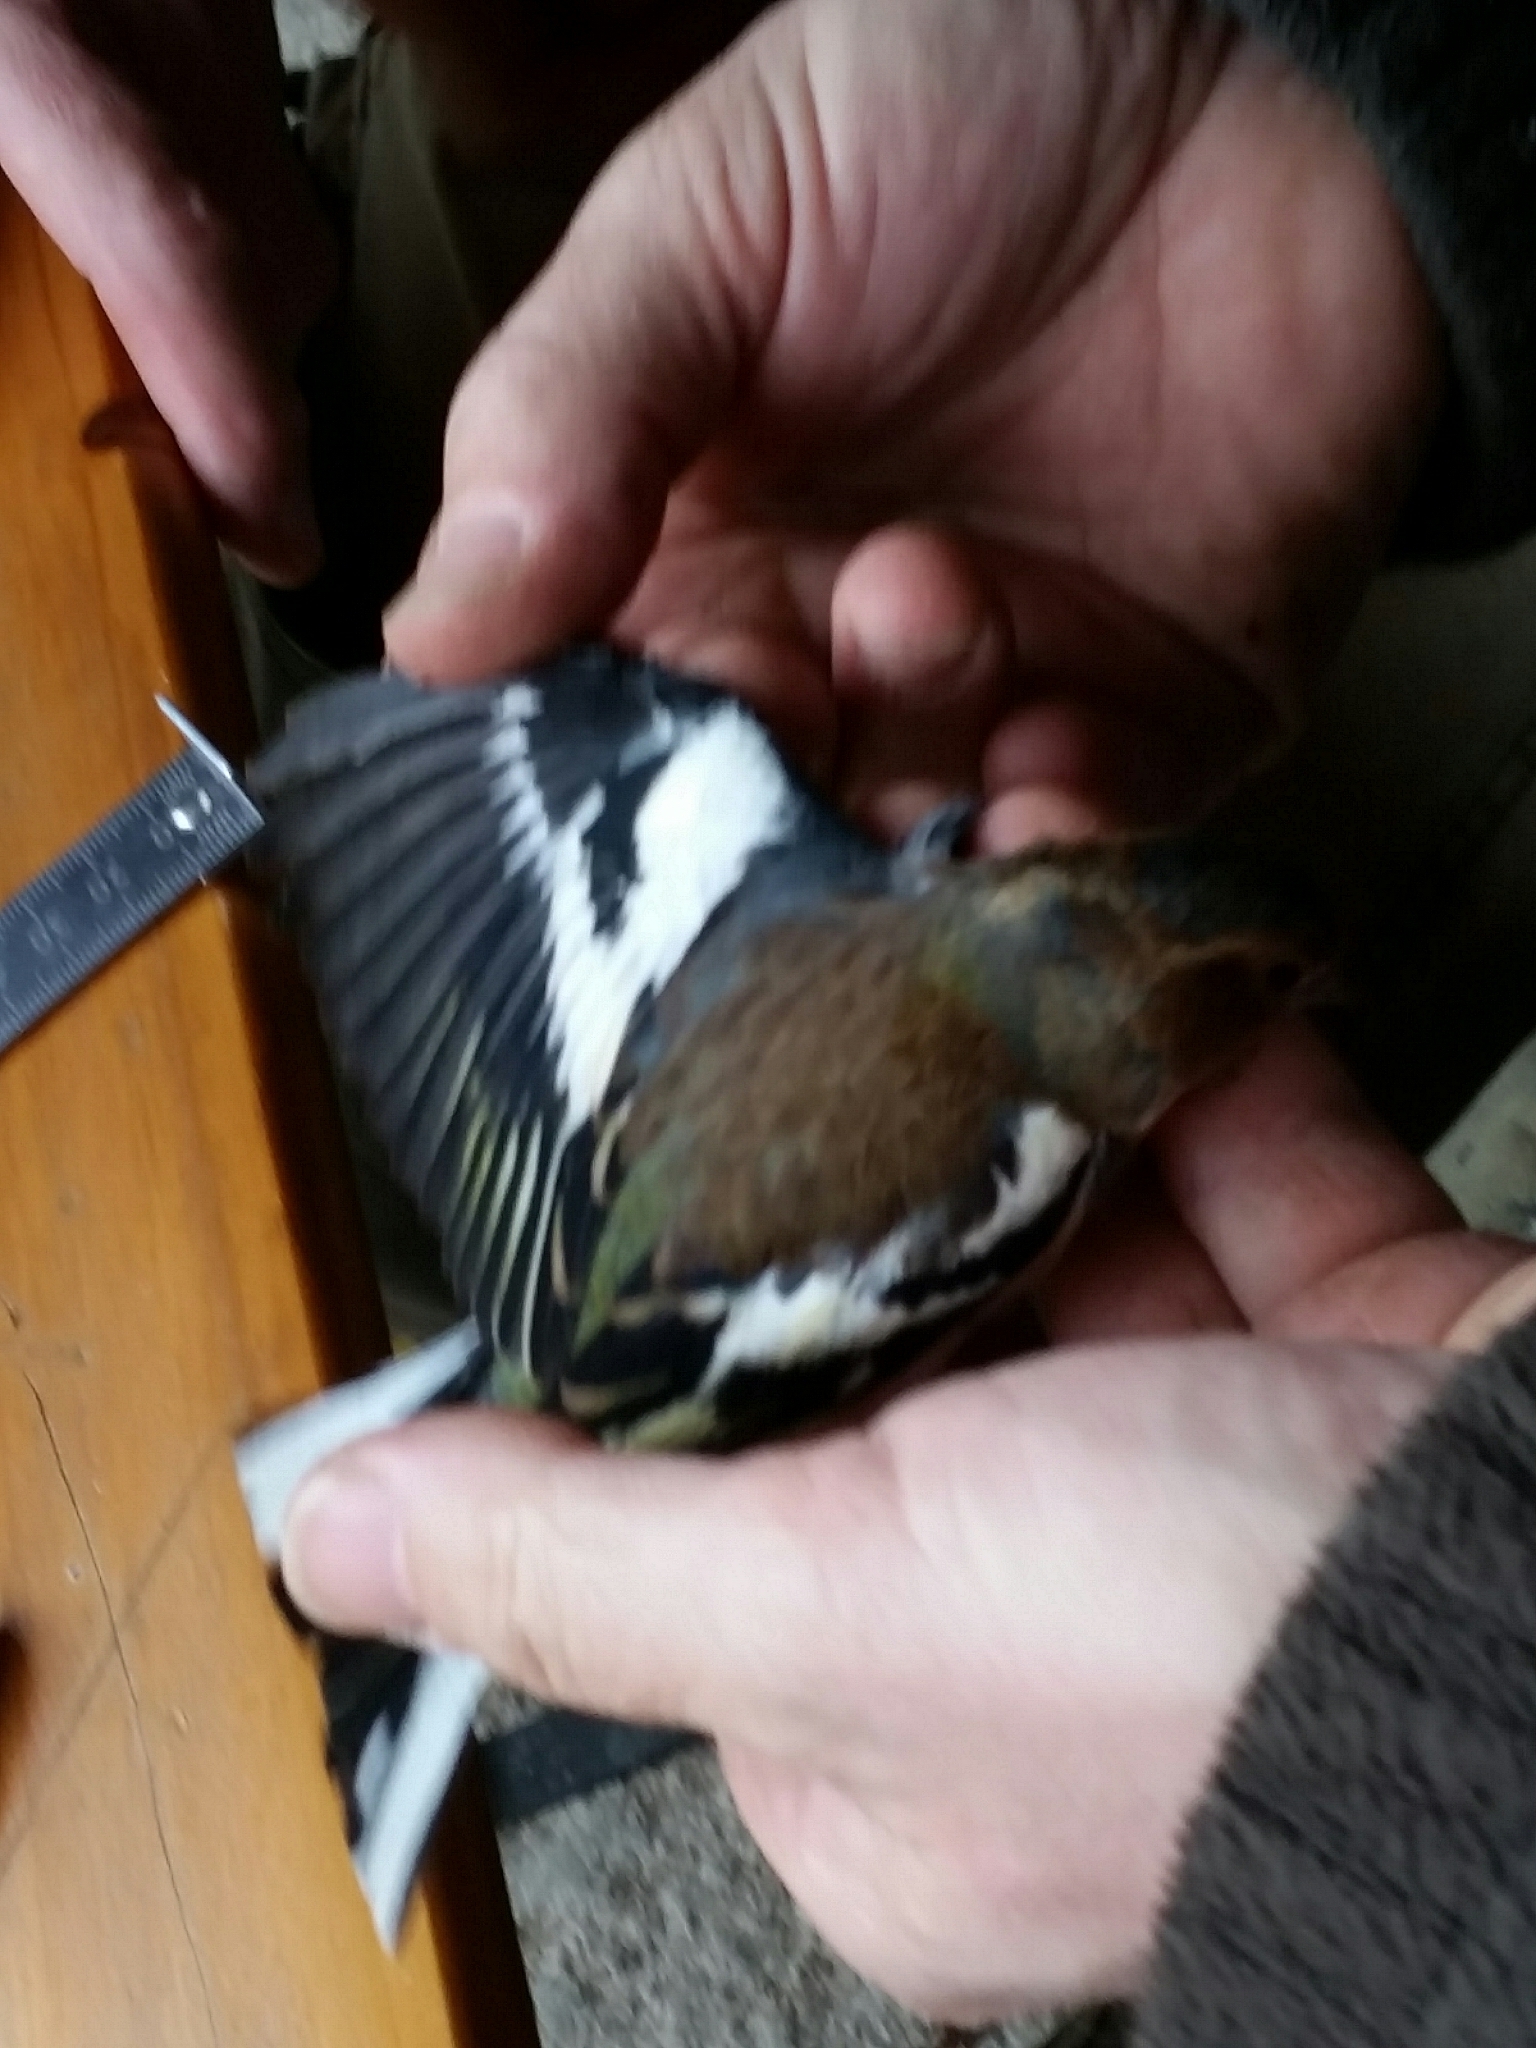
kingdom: Animalia
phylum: Chordata
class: Aves
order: Passeriformes
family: Fringillidae
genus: Fringilla
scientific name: Fringilla coelebs
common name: Common chaffinch
